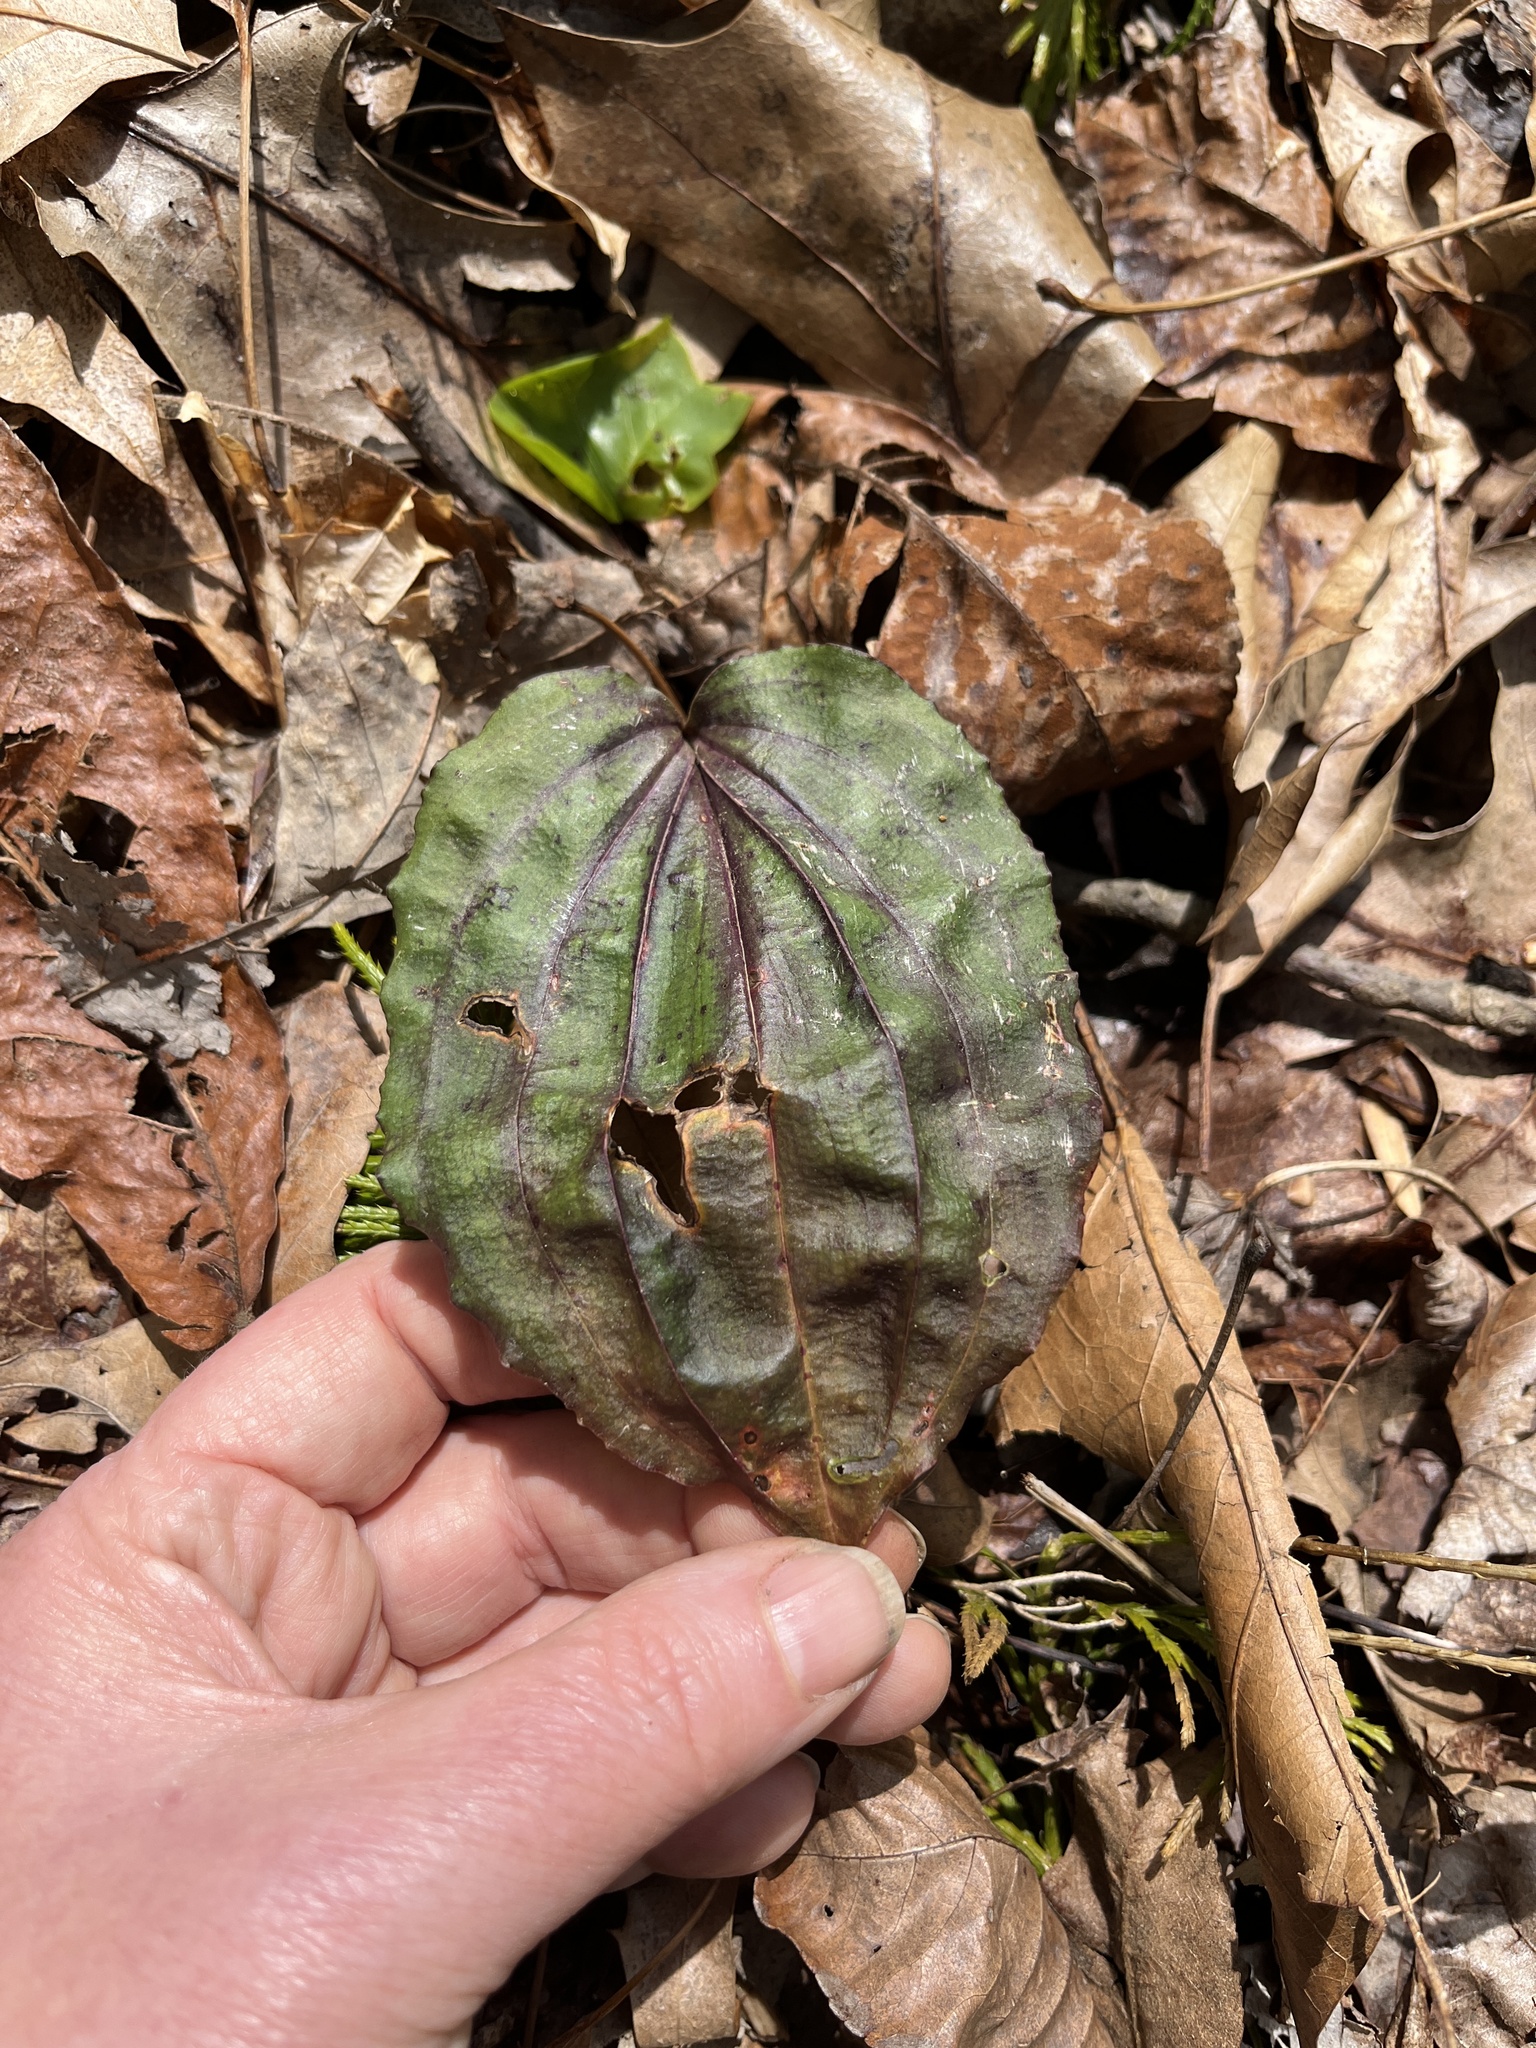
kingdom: Plantae
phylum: Tracheophyta
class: Liliopsida
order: Asparagales
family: Orchidaceae
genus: Tipularia
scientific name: Tipularia discolor
